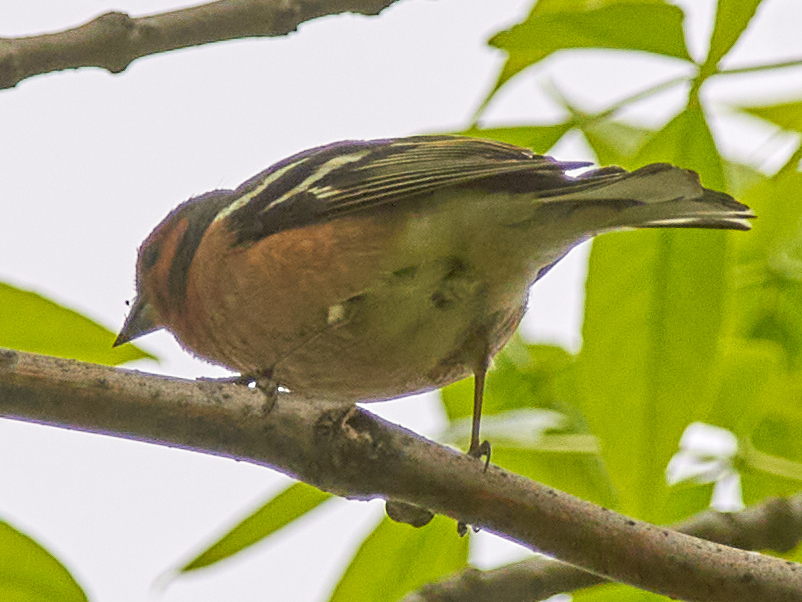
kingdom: Animalia
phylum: Chordata
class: Aves
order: Passeriformes
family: Fringillidae
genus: Fringilla
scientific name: Fringilla coelebs
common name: Common chaffinch
